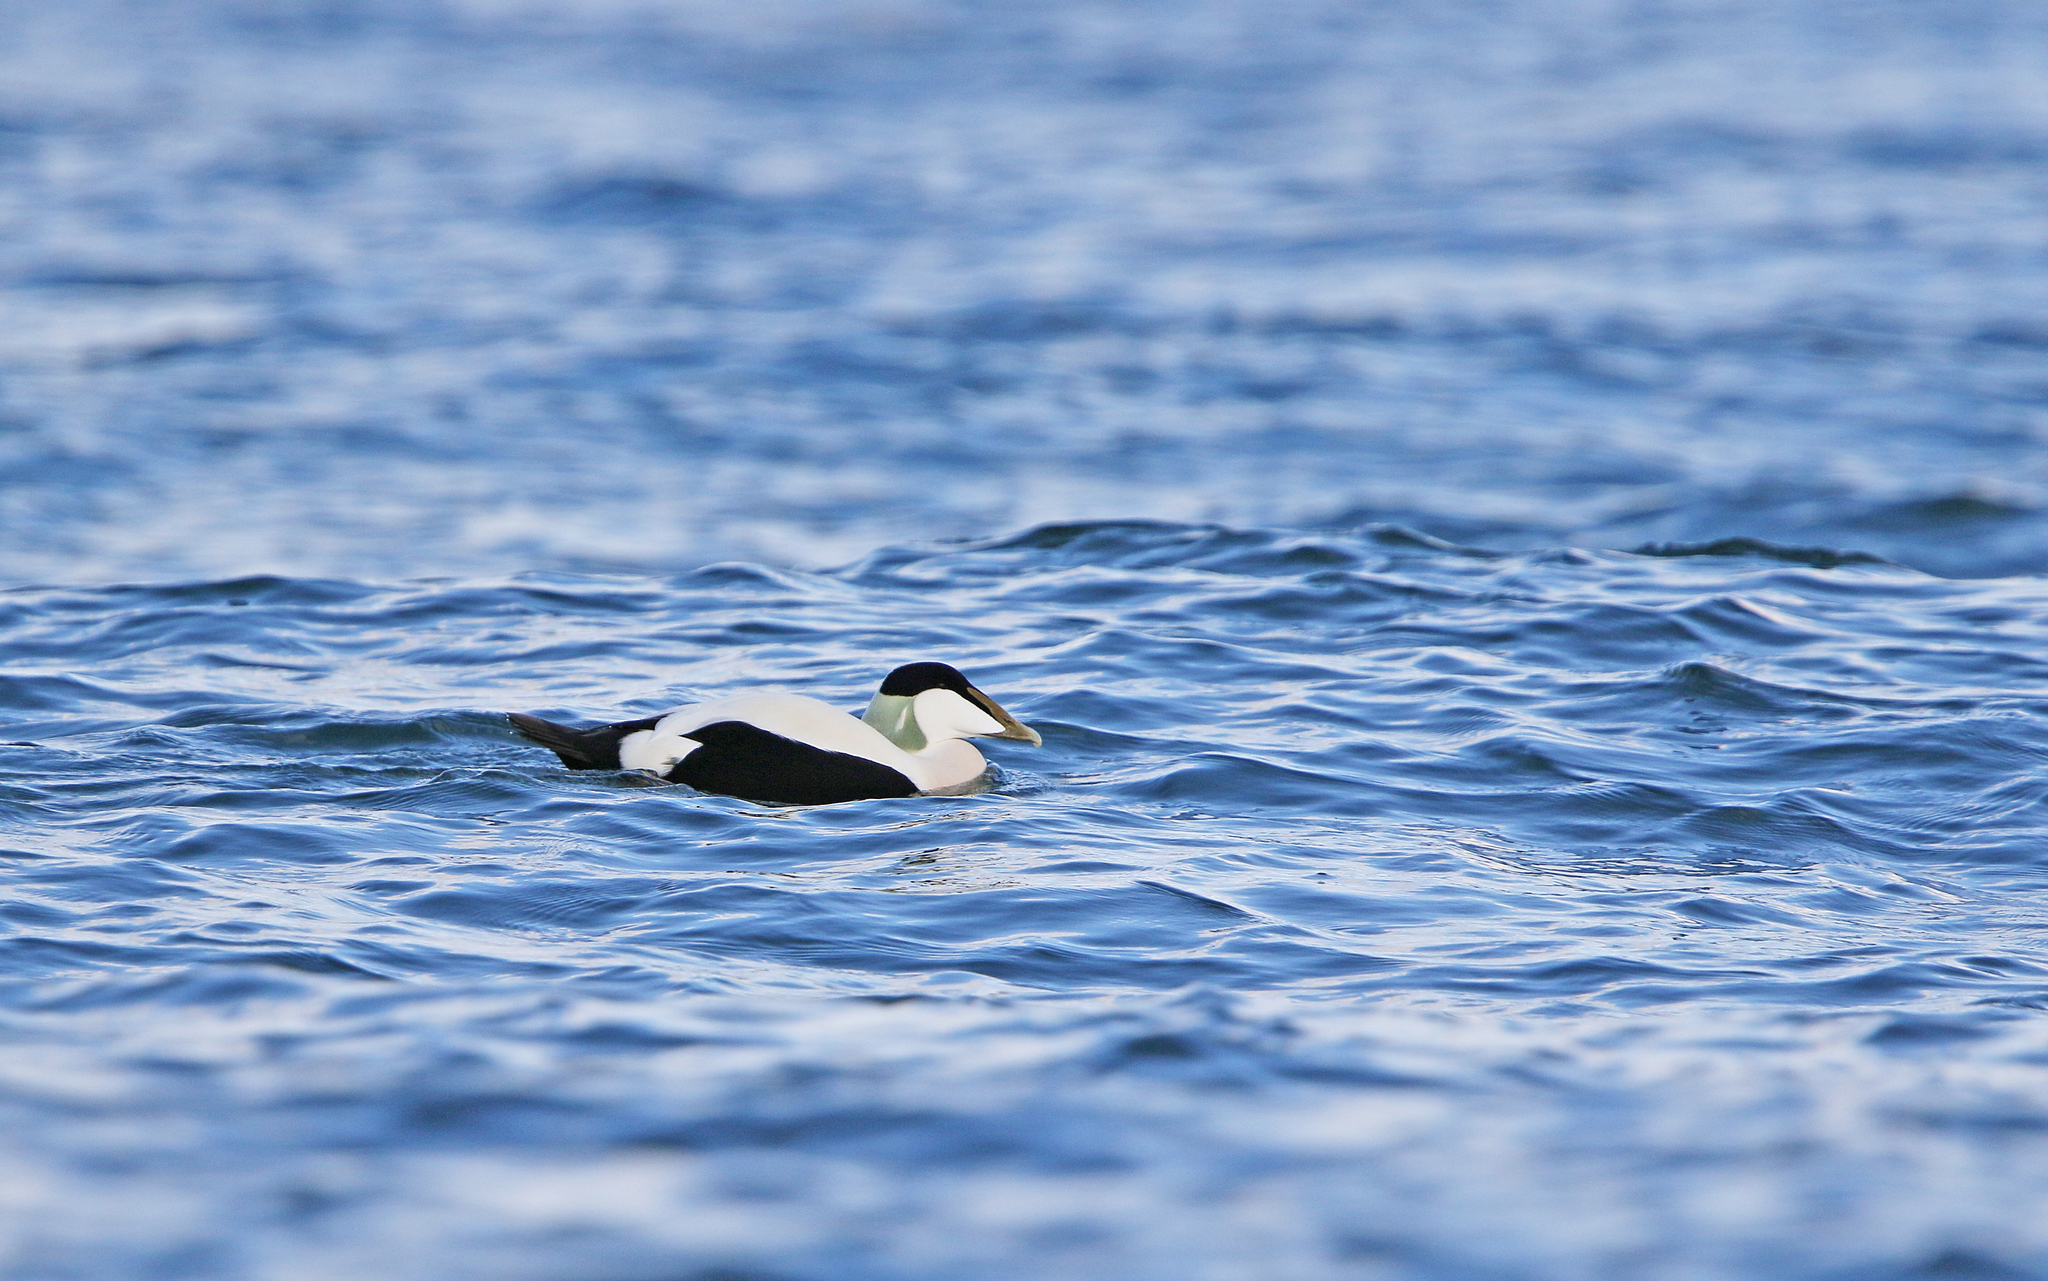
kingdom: Animalia
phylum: Chordata
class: Aves
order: Anseriformes
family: Anatidae
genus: Somateria
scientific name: Somateria mollissima
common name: Common eider
